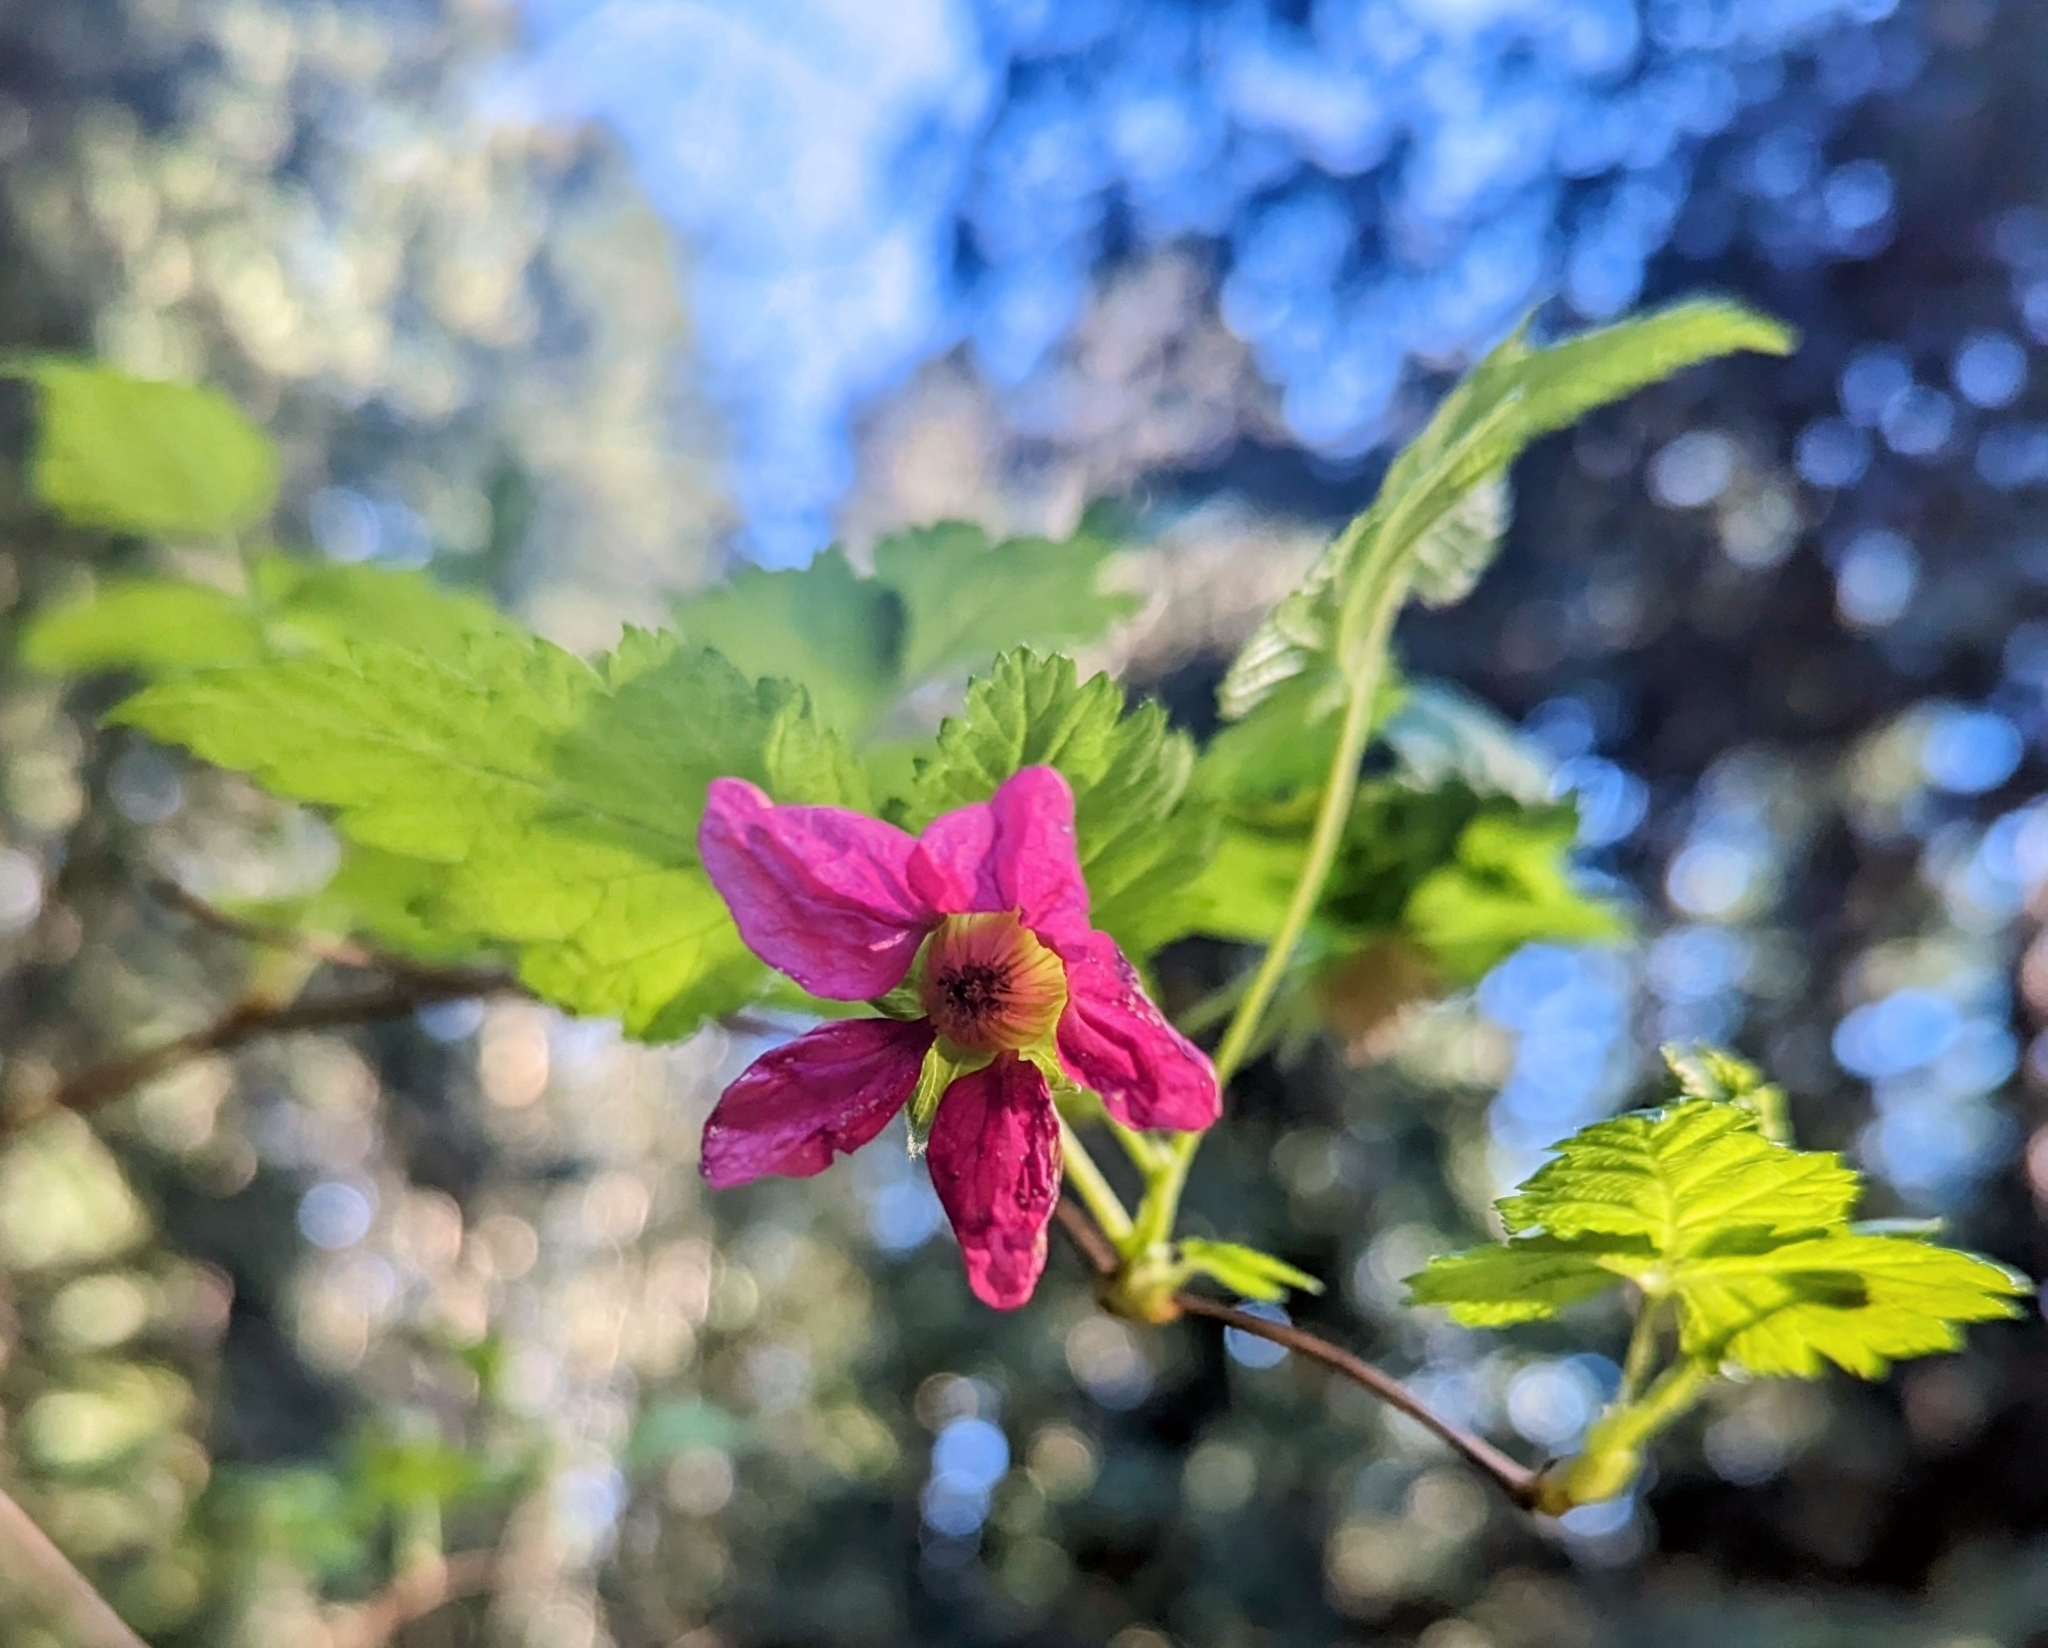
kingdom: Plantae
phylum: Tracheophyta
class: Magnoliopsida
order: Rosales
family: Rosaceae
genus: Rubus
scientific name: Rubus spectabilis
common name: Salmonberry
